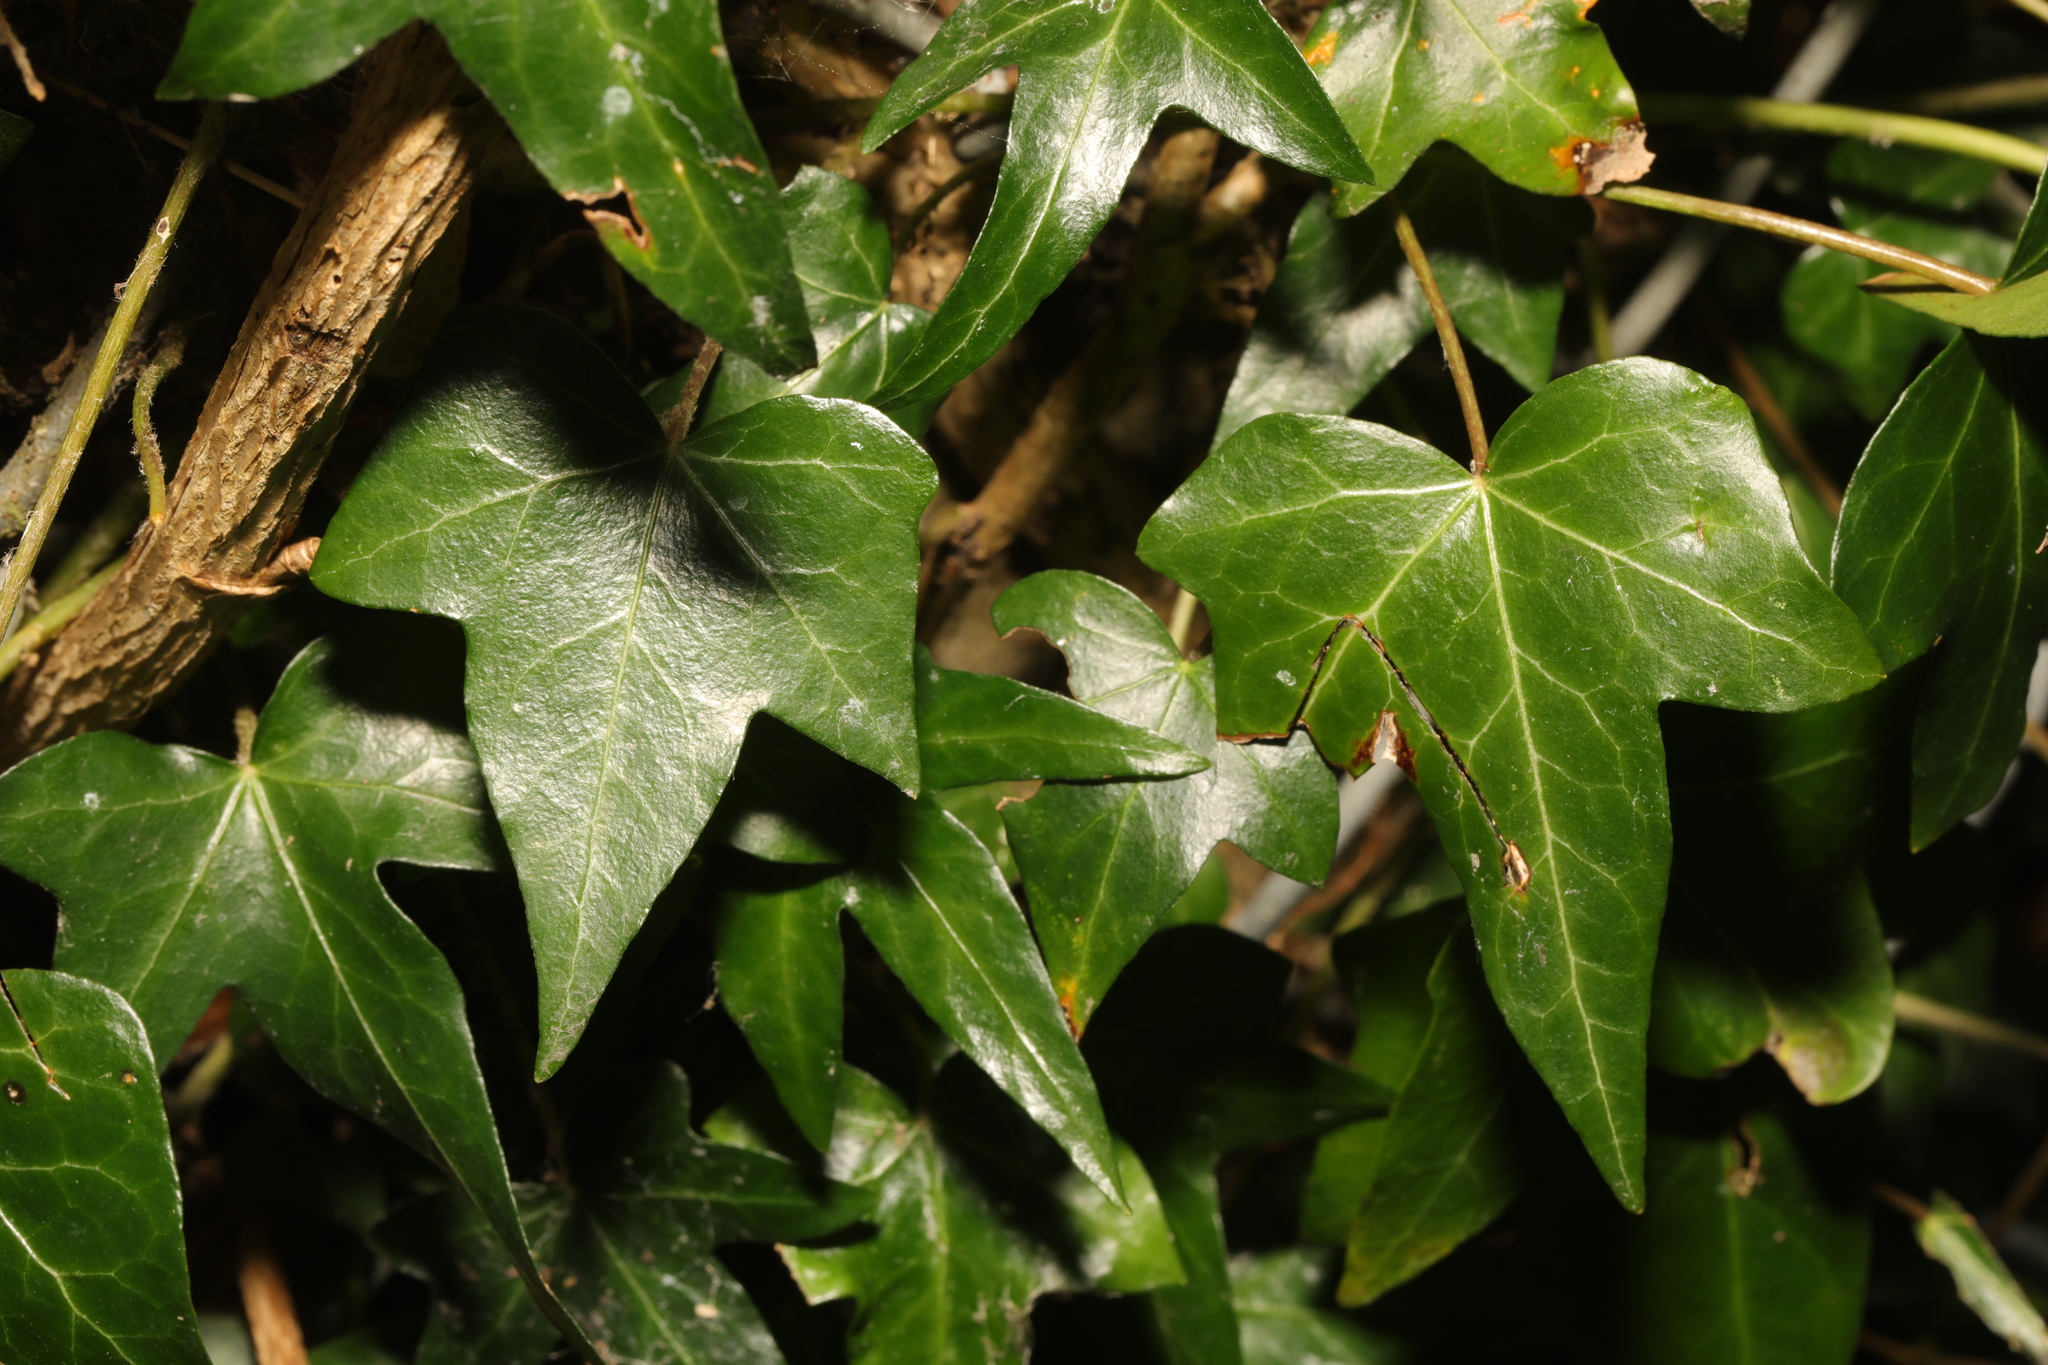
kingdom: Plantae
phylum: Tracheophyta
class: Magnoliopsida
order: Apiales
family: Araliaceae
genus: Hedera
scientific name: Hedera helix
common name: Ivy
